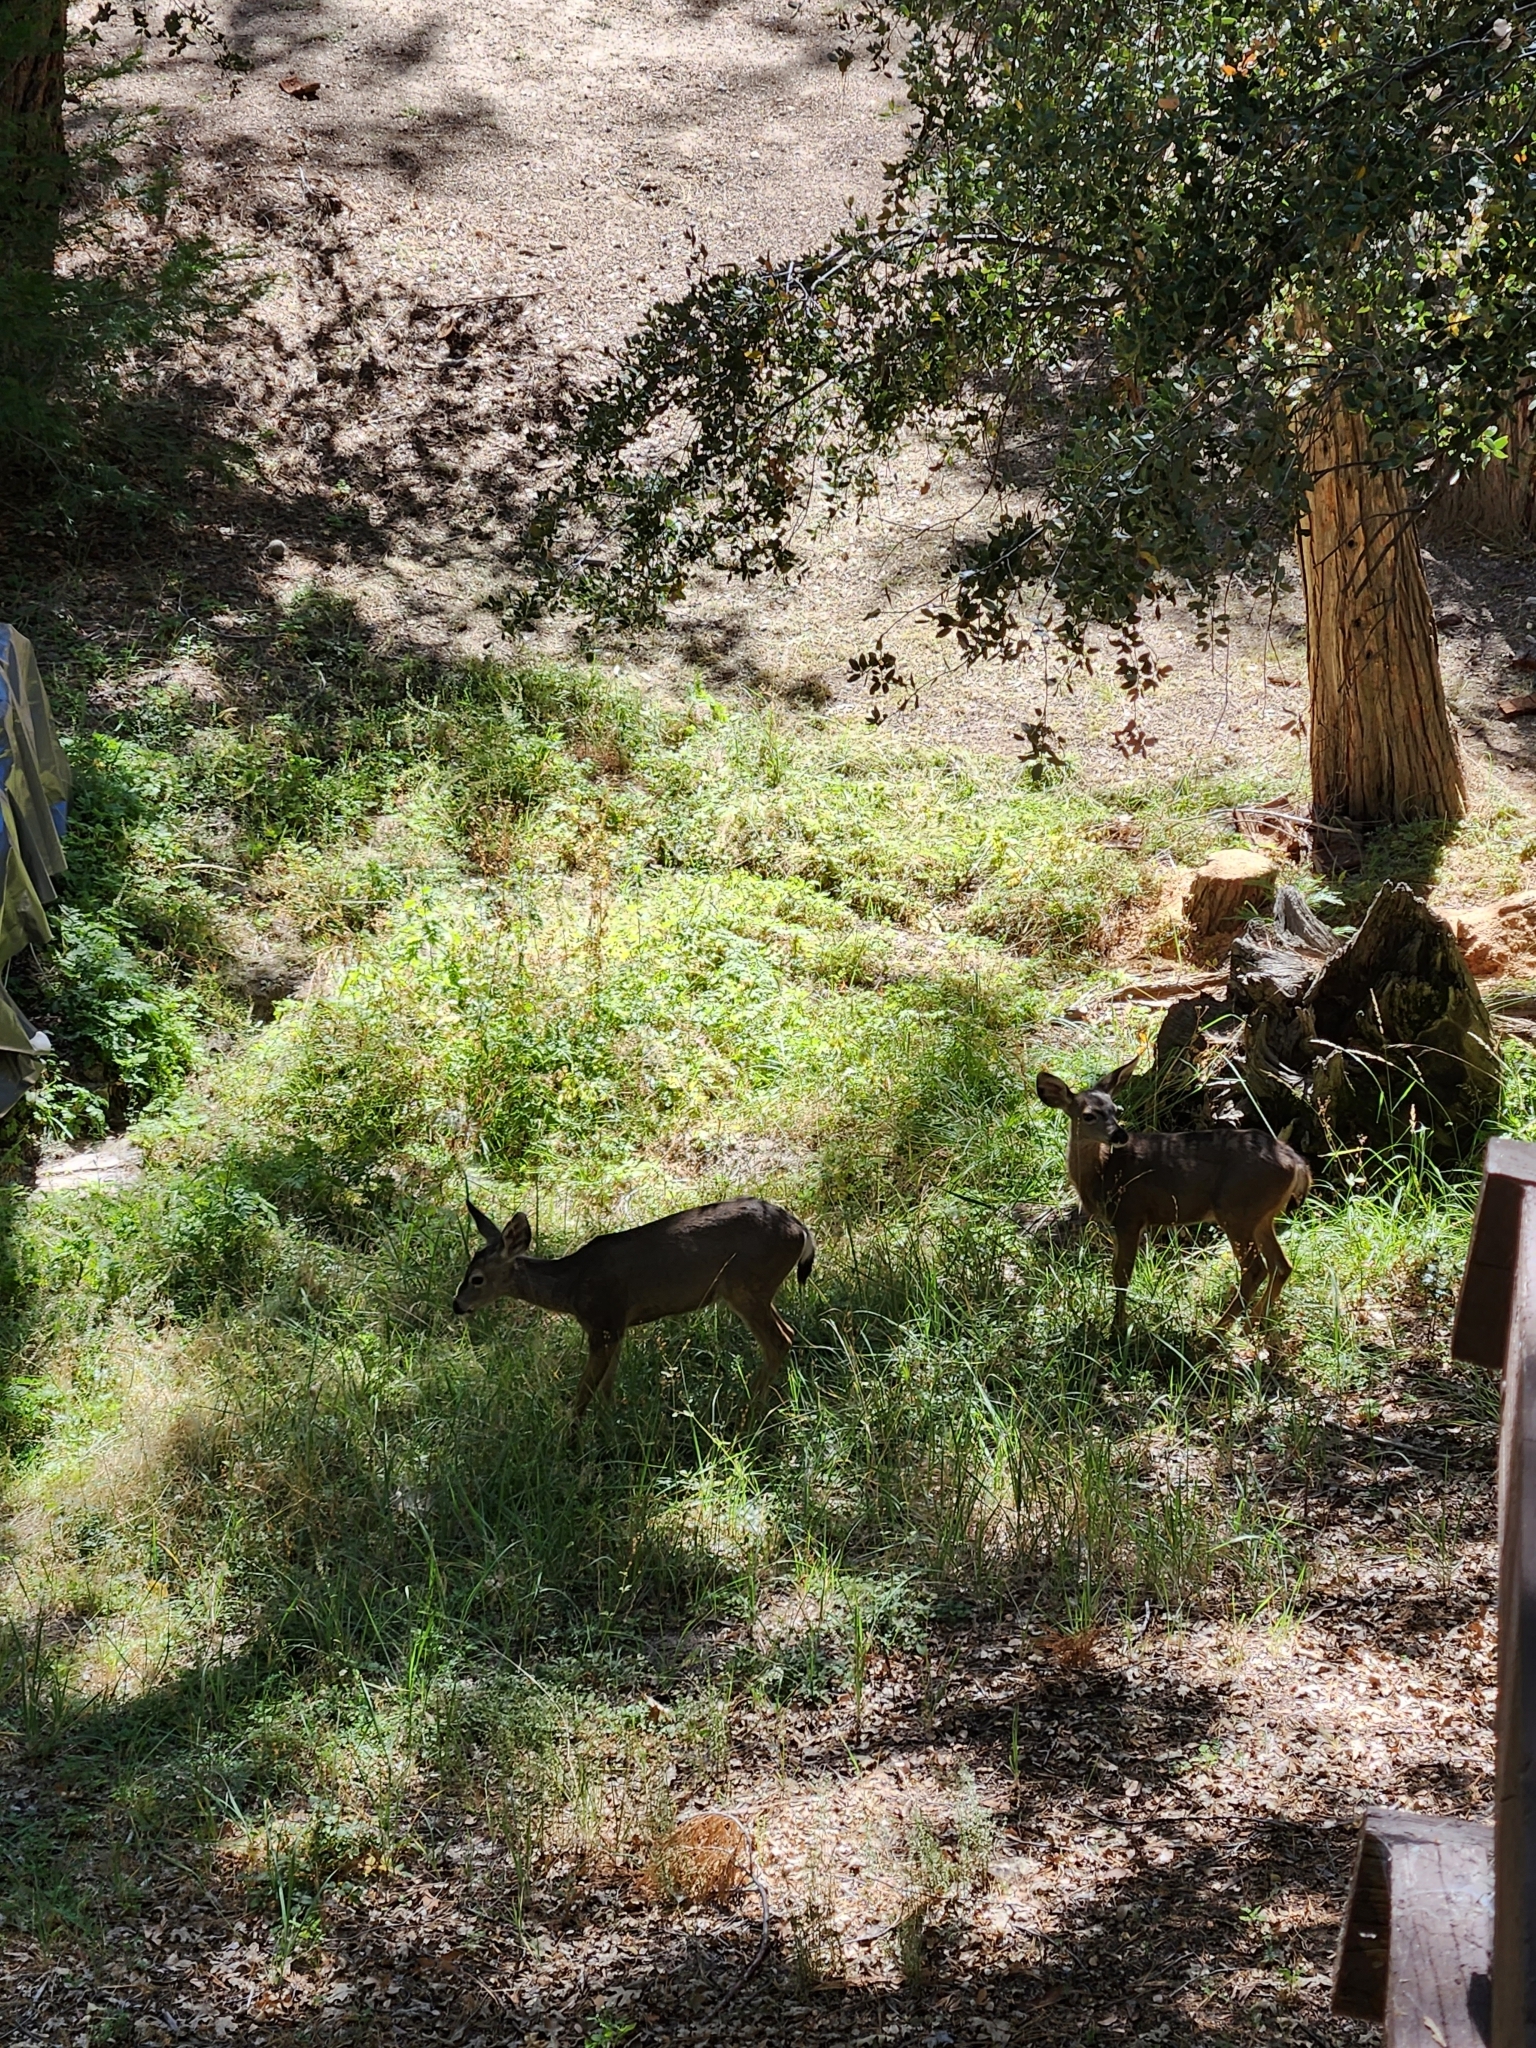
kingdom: Animalia
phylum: Chordata
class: Mammalia
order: Artiodactyla
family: Cervidae
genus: Odocoileus
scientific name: Odocoileus hemionus
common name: Mule deer
